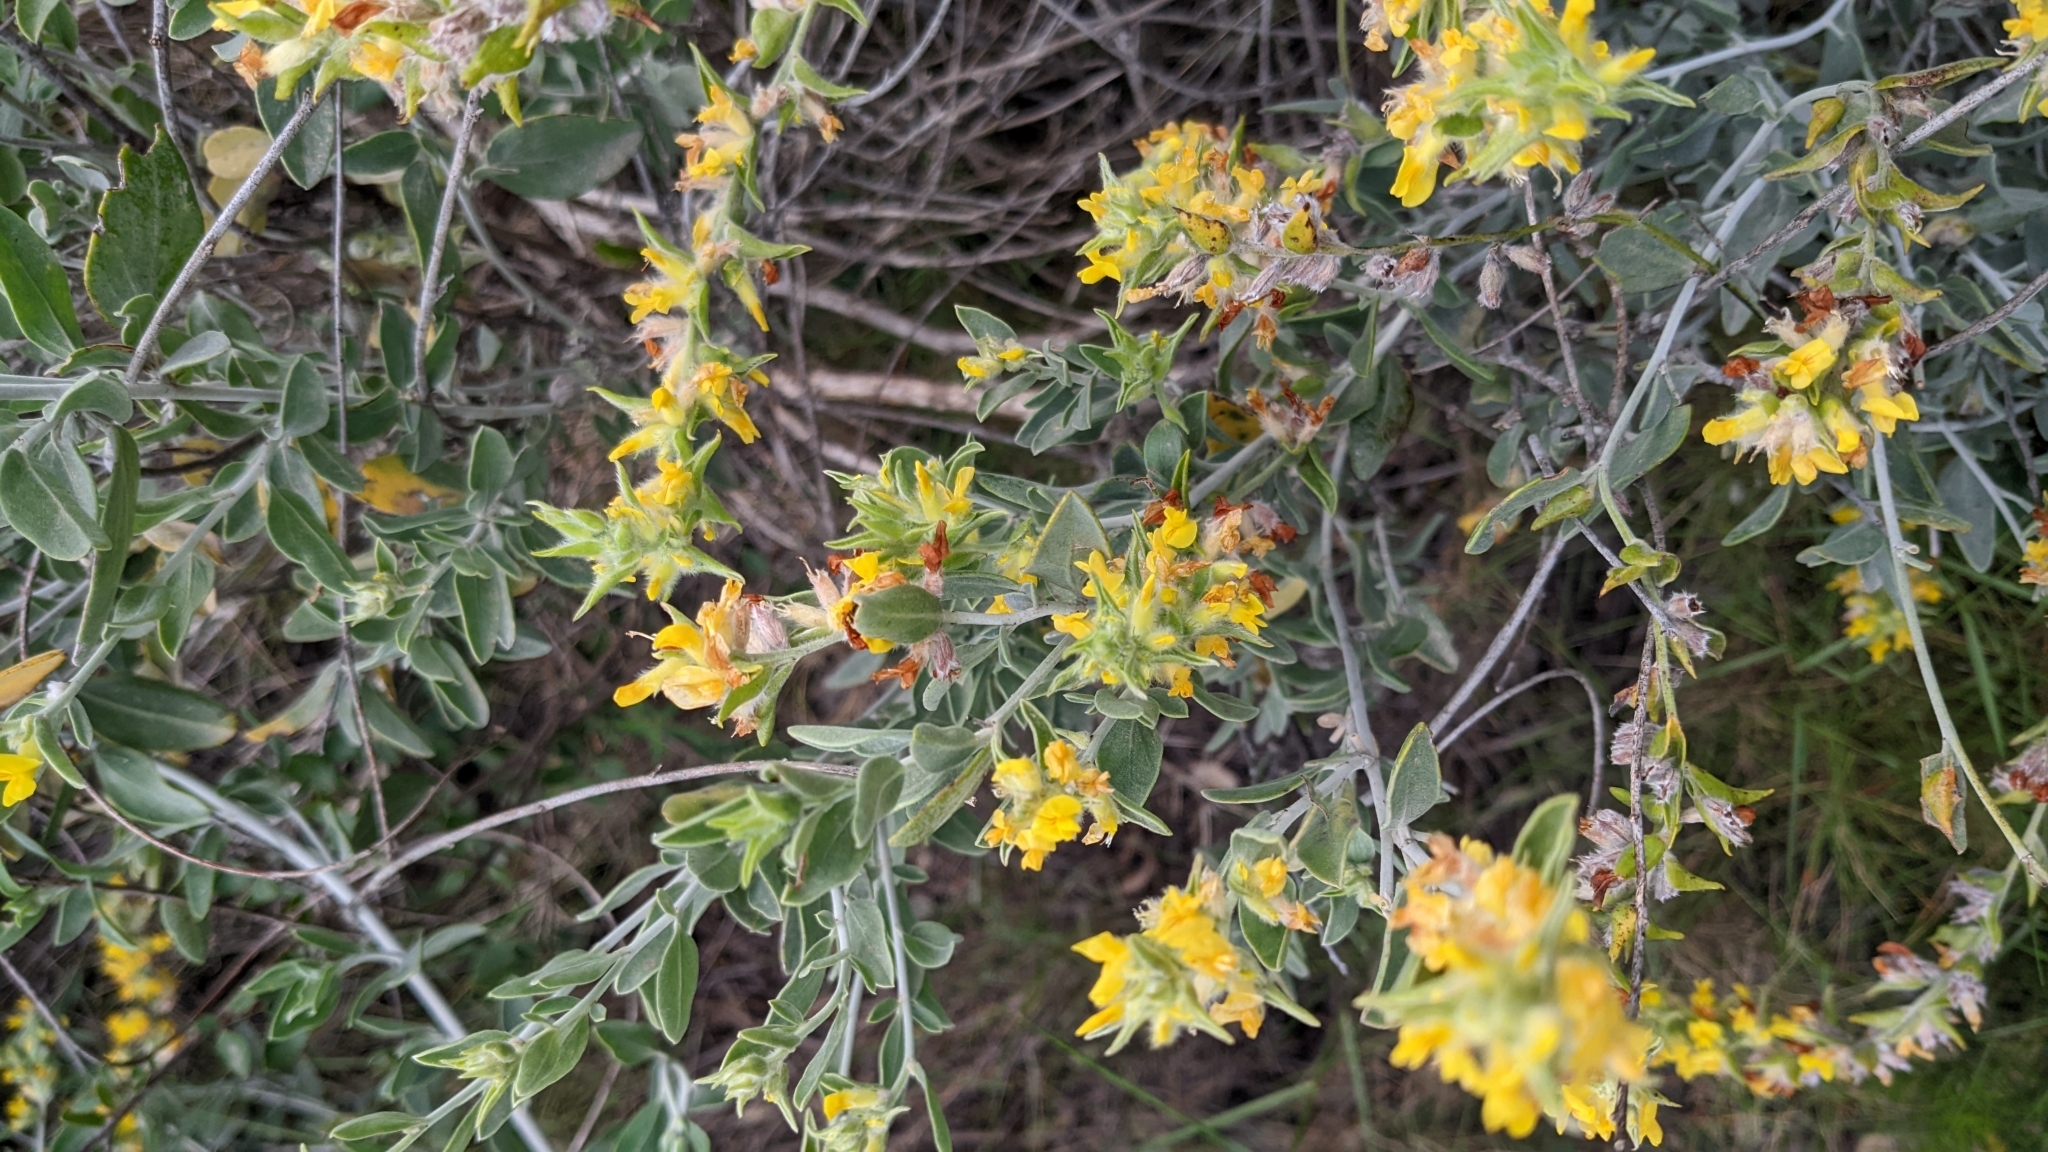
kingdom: Plantae
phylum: Tracheophyta
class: Magnoliopsida
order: Fabales
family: Fabaceae
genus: Anthyllis
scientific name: Anthyllis cytisoides
